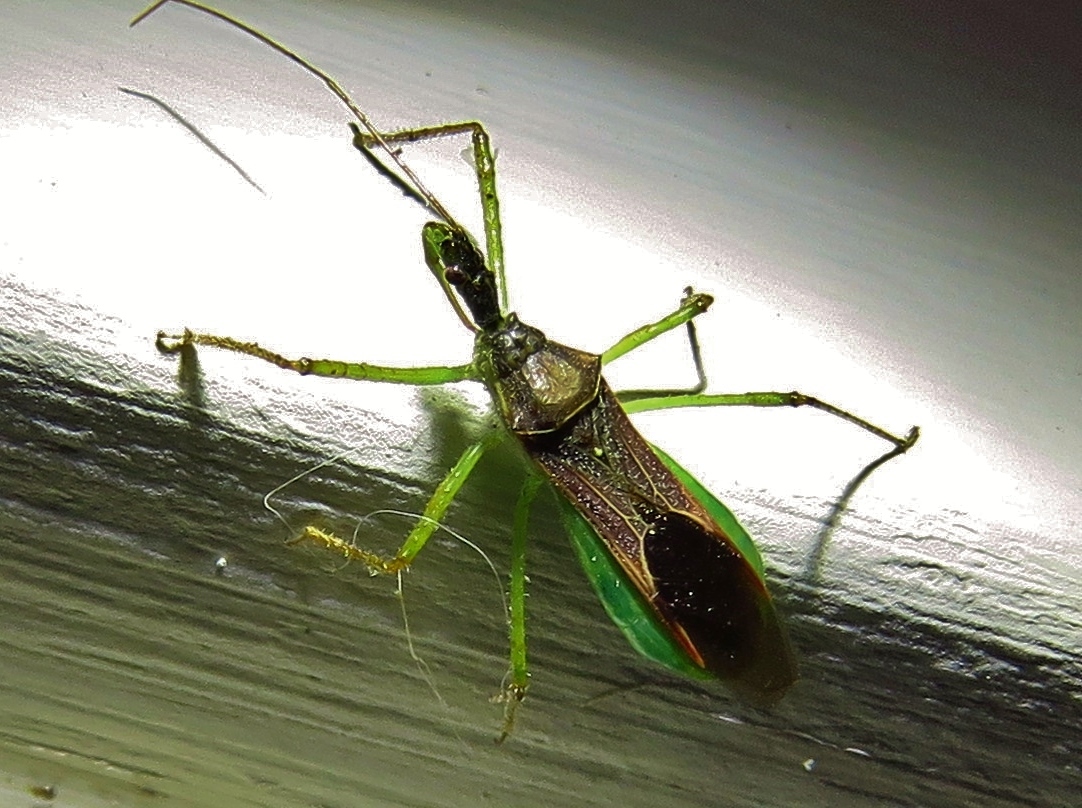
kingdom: Animalia
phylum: Arthropoda
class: Insecta
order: Hemiptera
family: Reduviidae
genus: Zelus
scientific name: Zelus renardii
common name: Assassin bug
